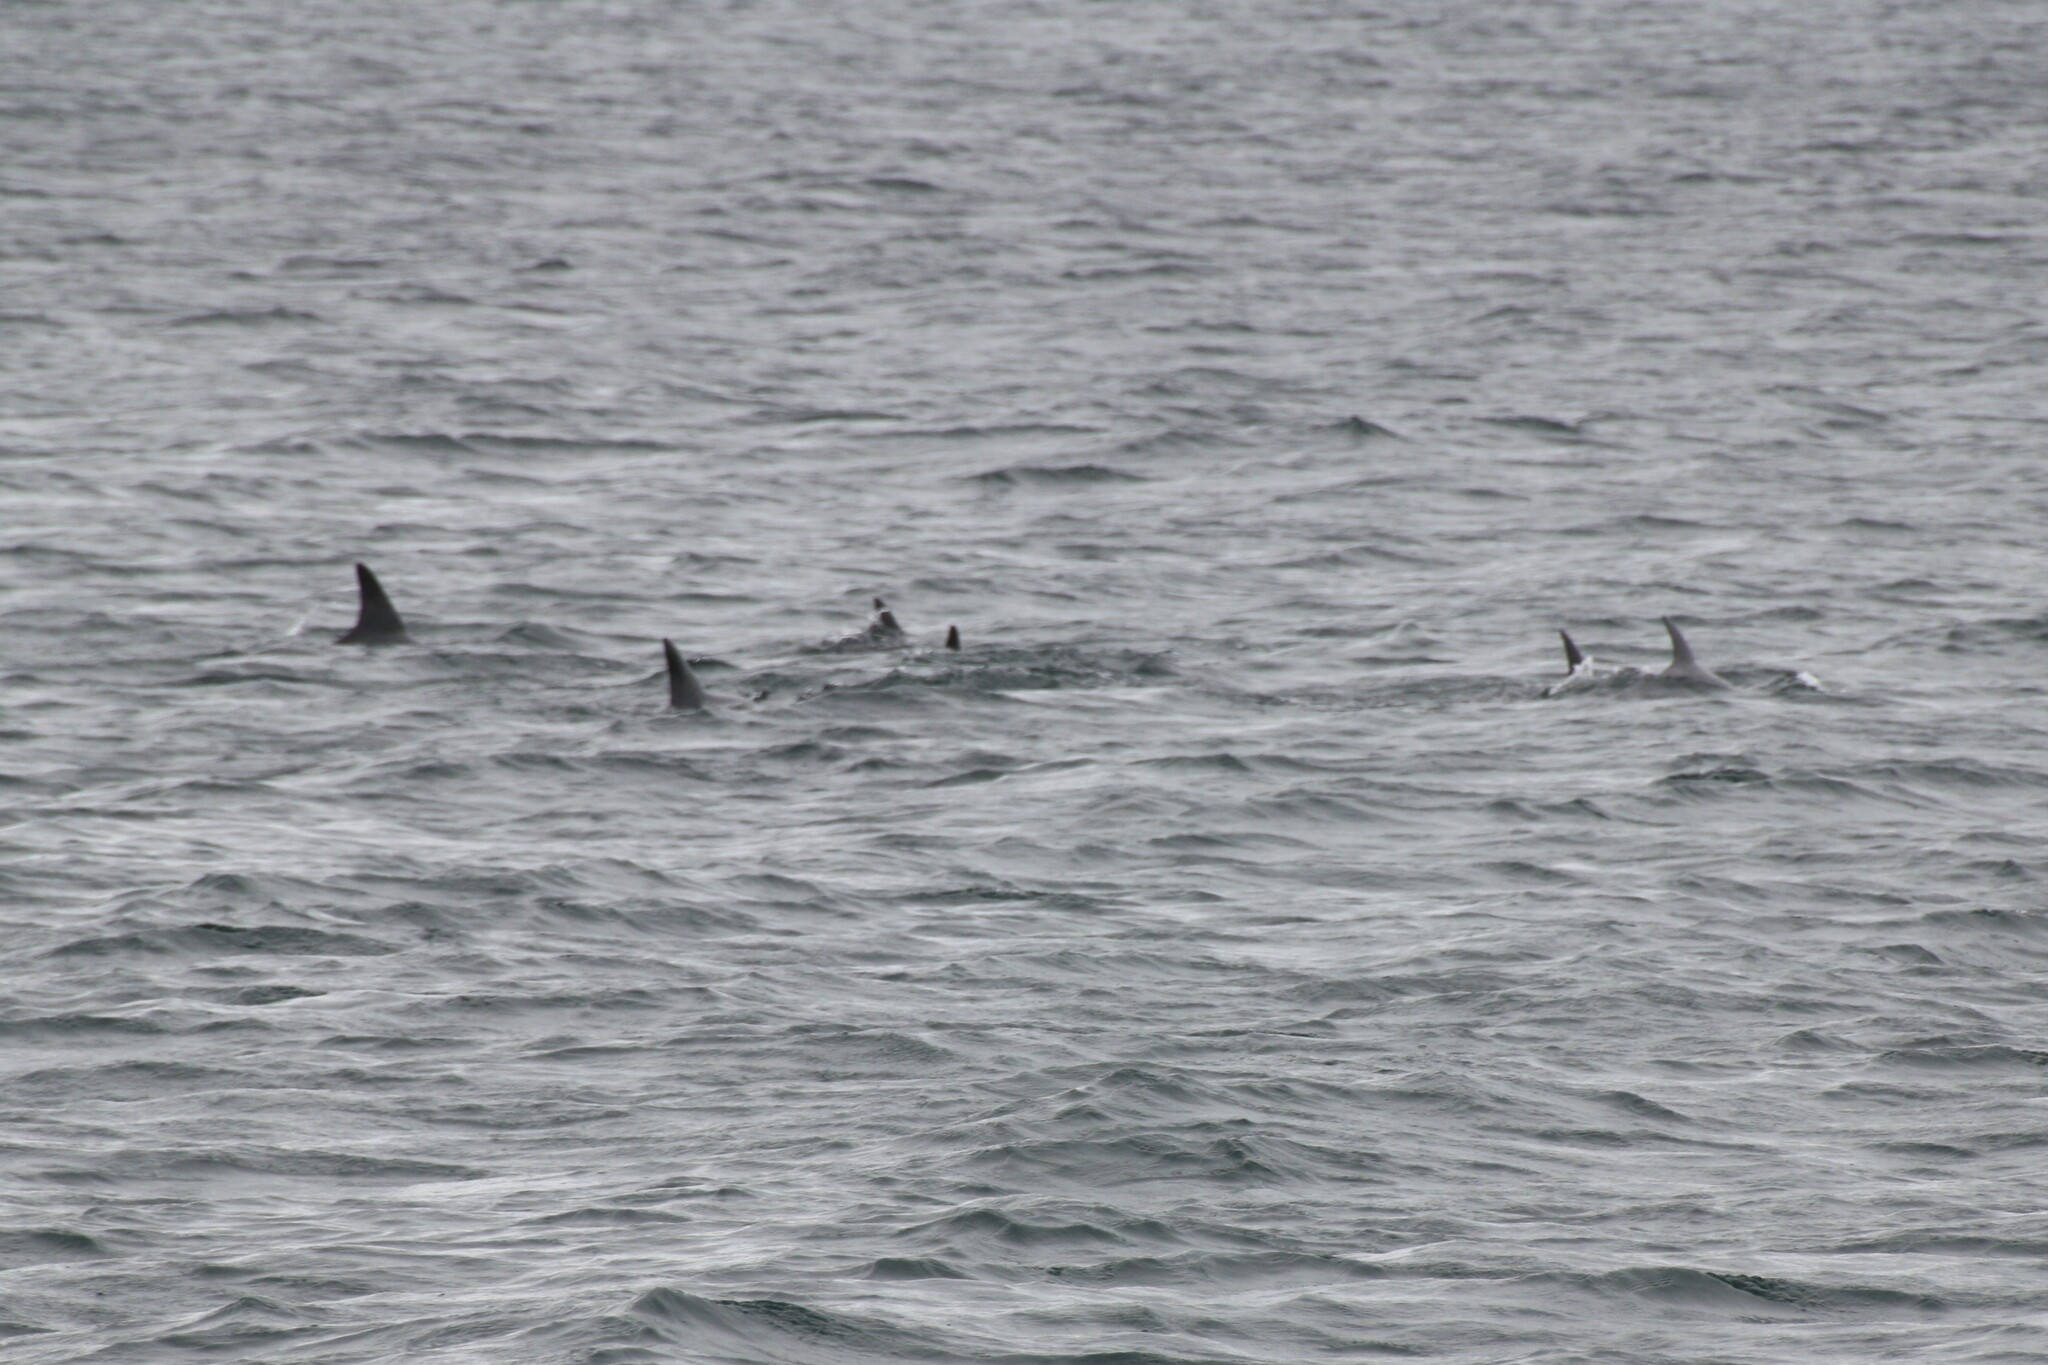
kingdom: Animalia
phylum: Chordata
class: Mammalia
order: Cetacea
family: Delphinidae
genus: Tursiops
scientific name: Tursiops aduncus
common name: Indo-pacific bottlenose dolphin
